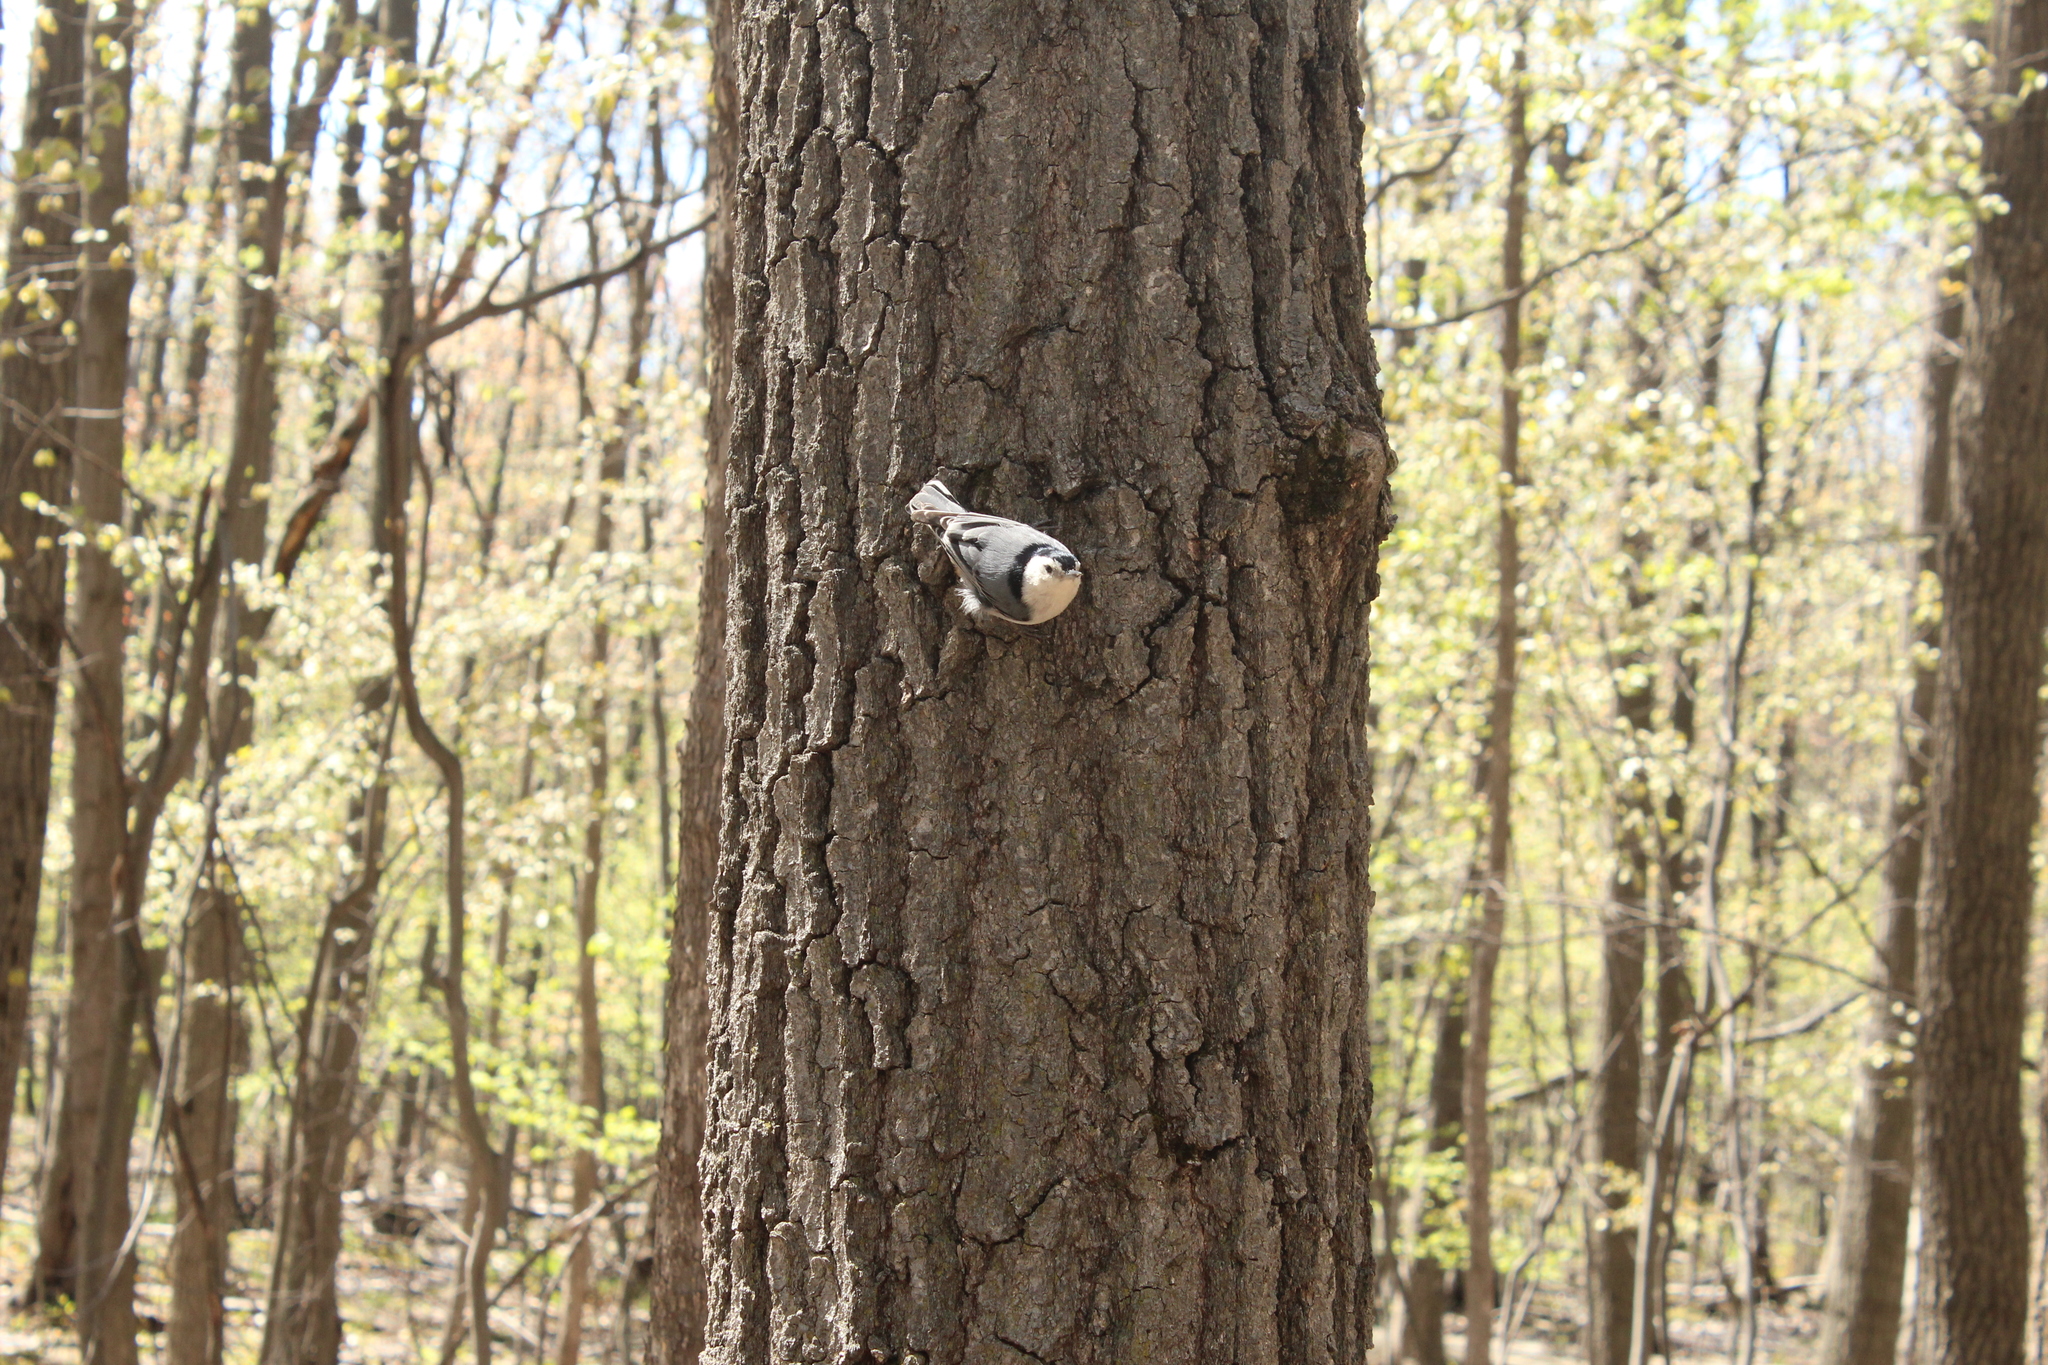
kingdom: Animalia
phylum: Chordata
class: Aves
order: Passeriformes
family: Sittidae
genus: Sitta
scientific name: Sitta carolinensis
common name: White-breasted nuthatch
